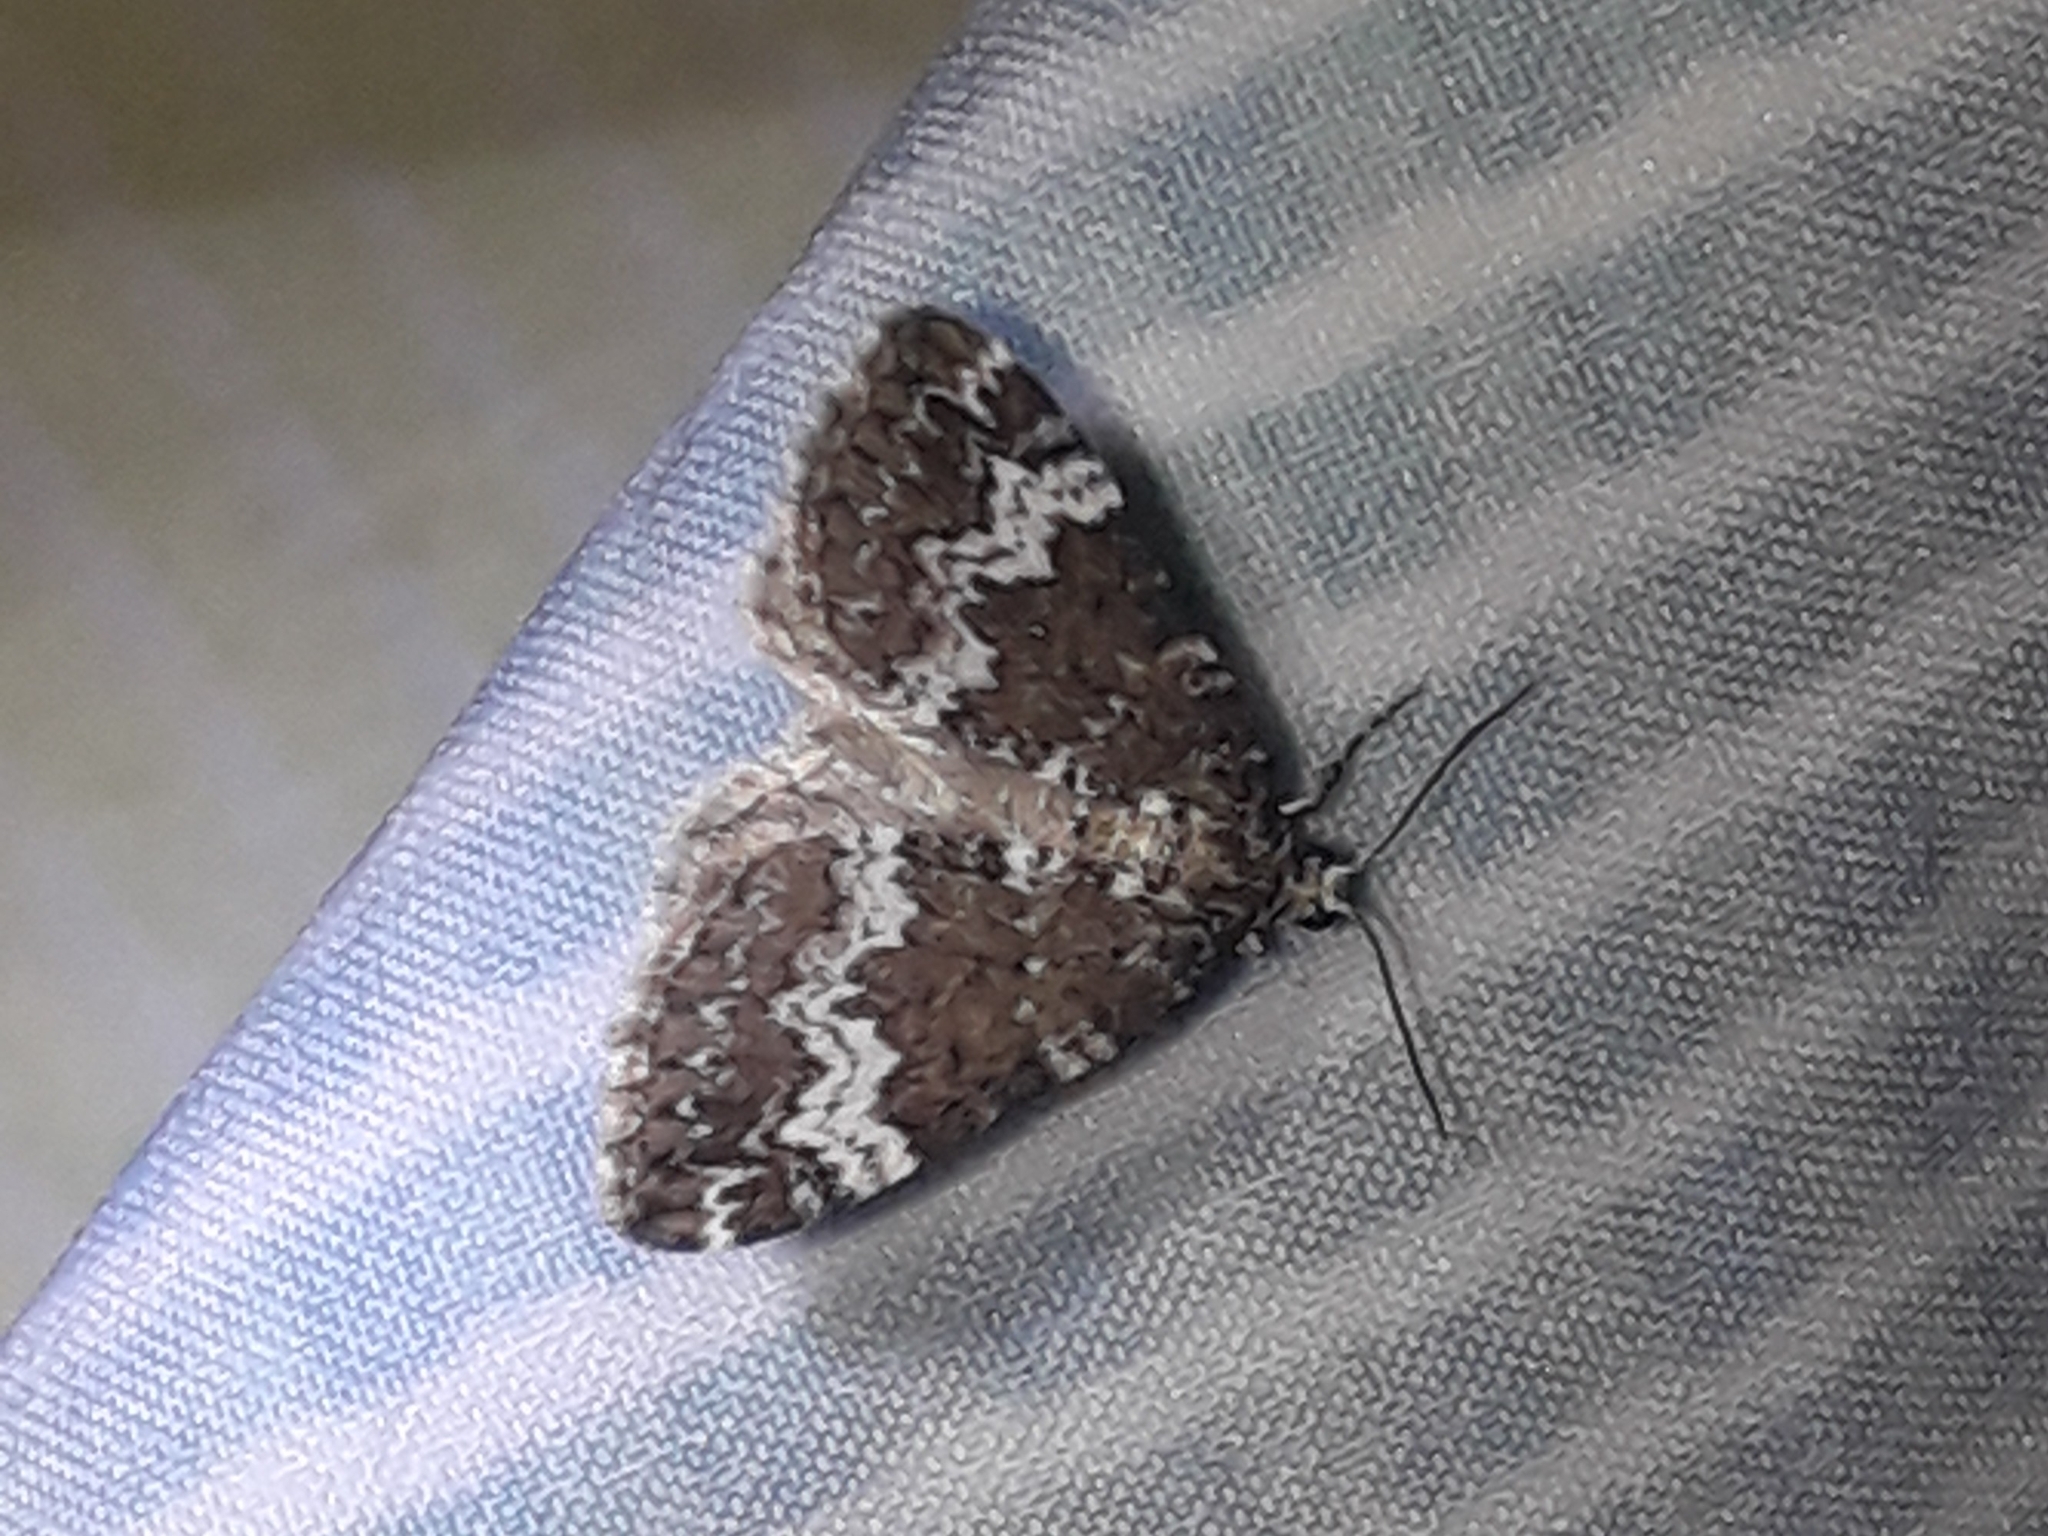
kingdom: Animalia
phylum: Arthropoda
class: Insecta
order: Lepidoptera
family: Geometridae
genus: Perizoma
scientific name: Perizoma alchemillata
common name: Small rivulet
